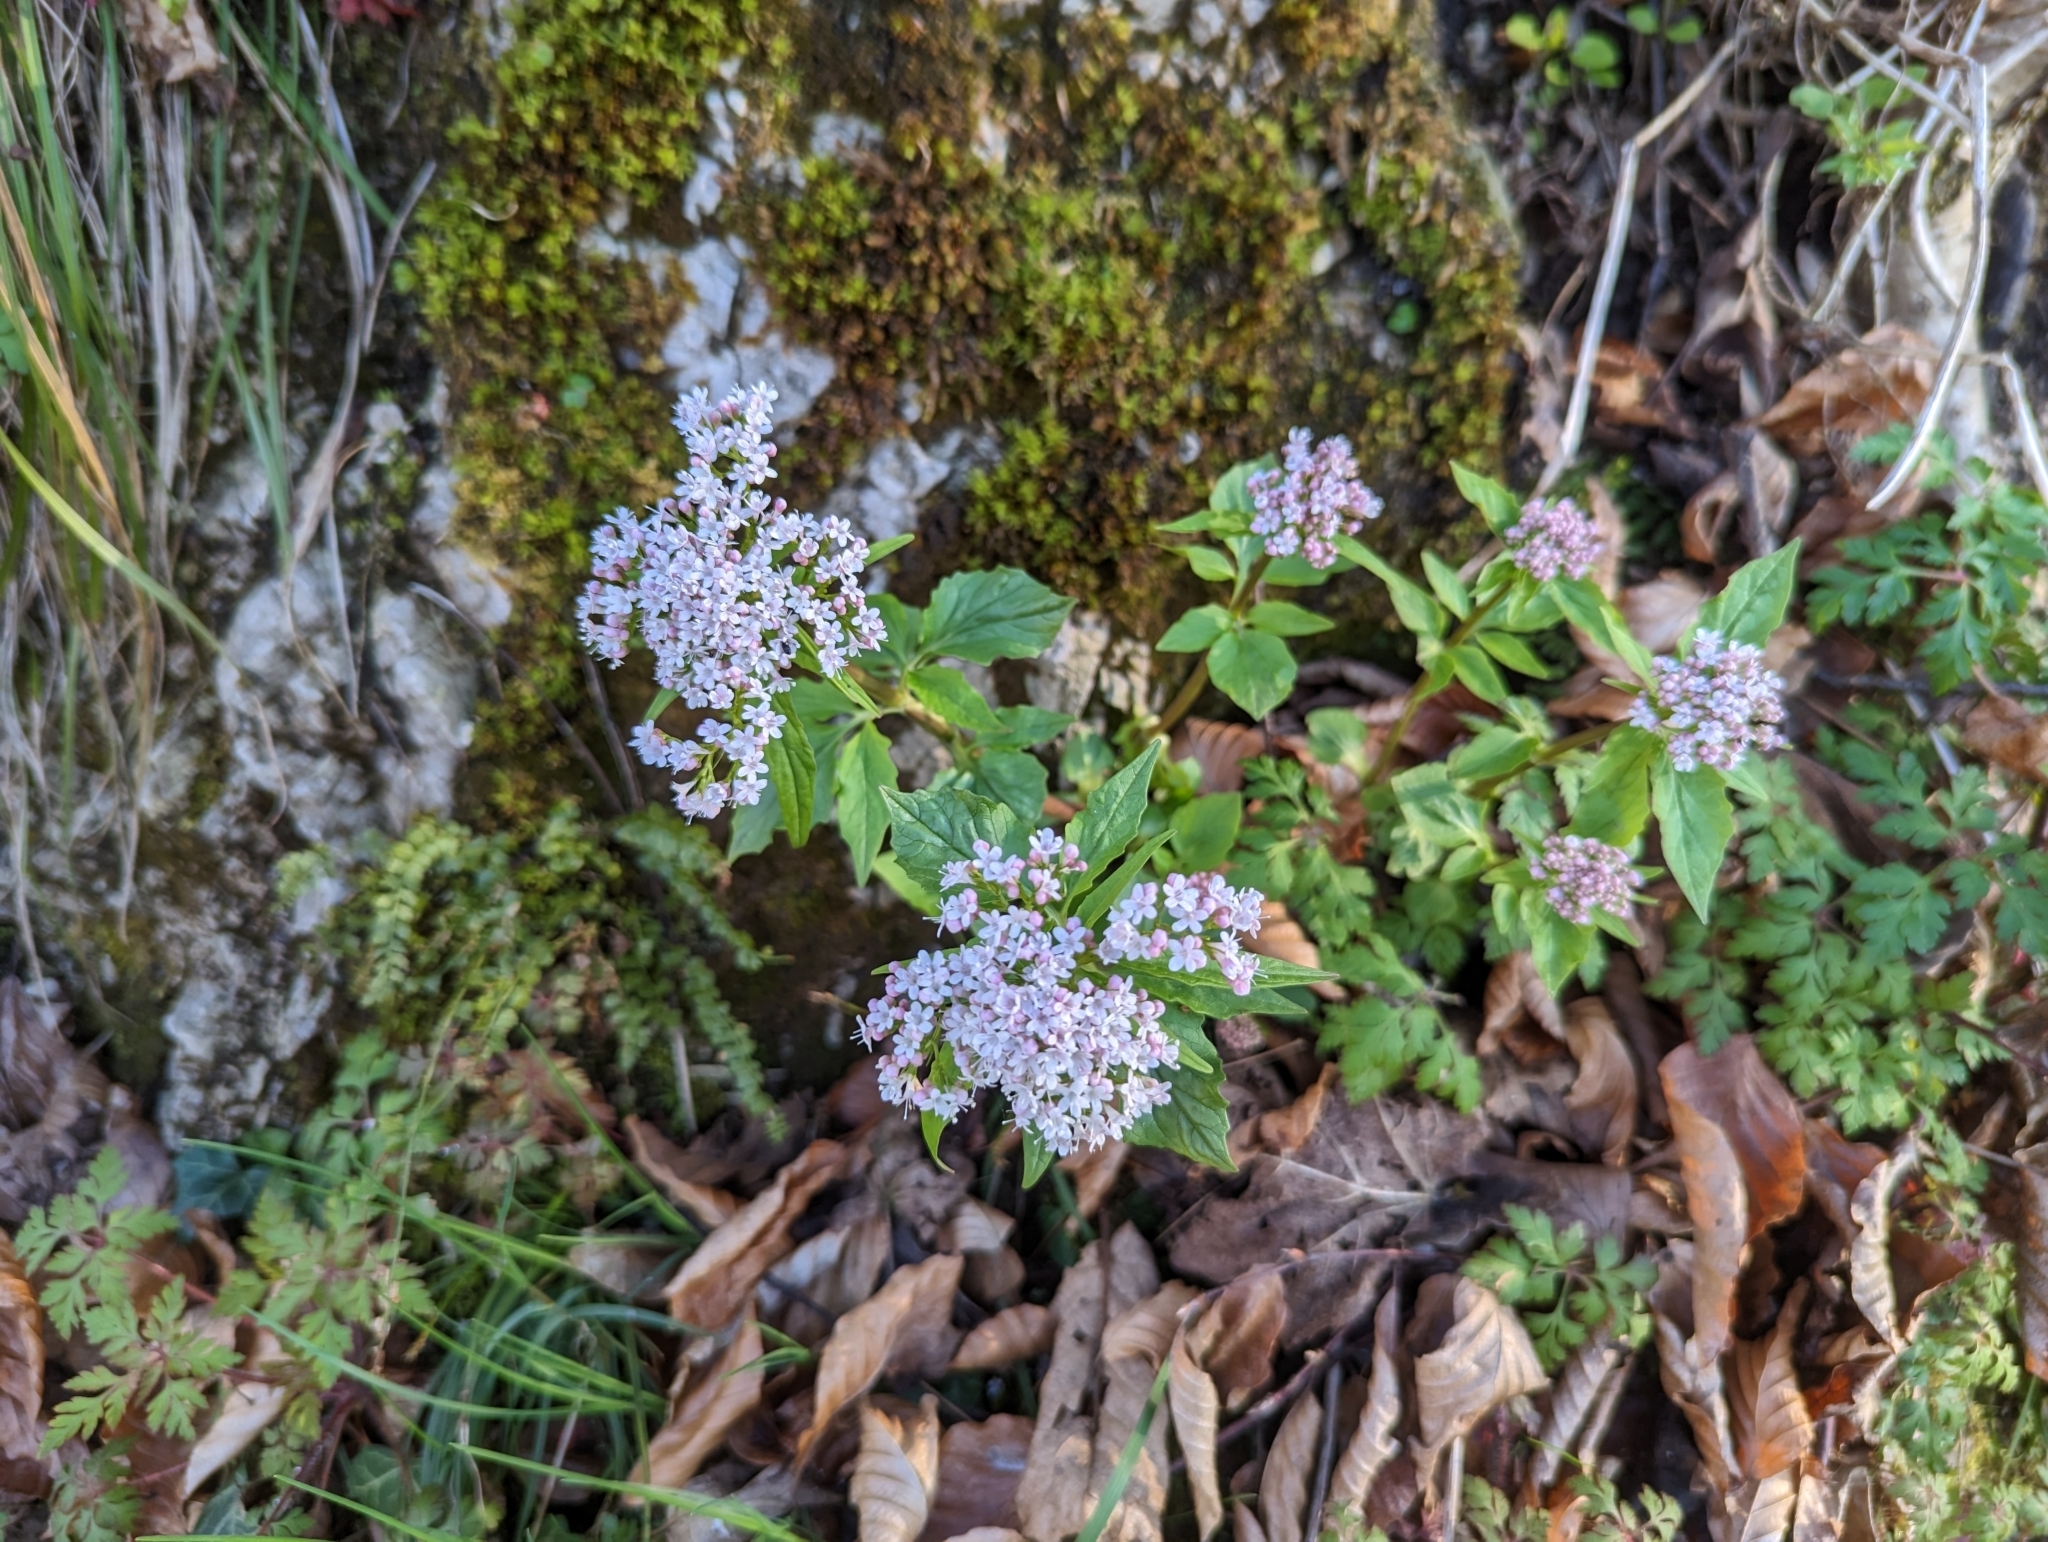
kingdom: Plantae
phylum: Tracheophyta
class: Magnoliopsida
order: Dipsacales
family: Caprifoliaceae
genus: Valeriana
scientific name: Valeriana tripteris
